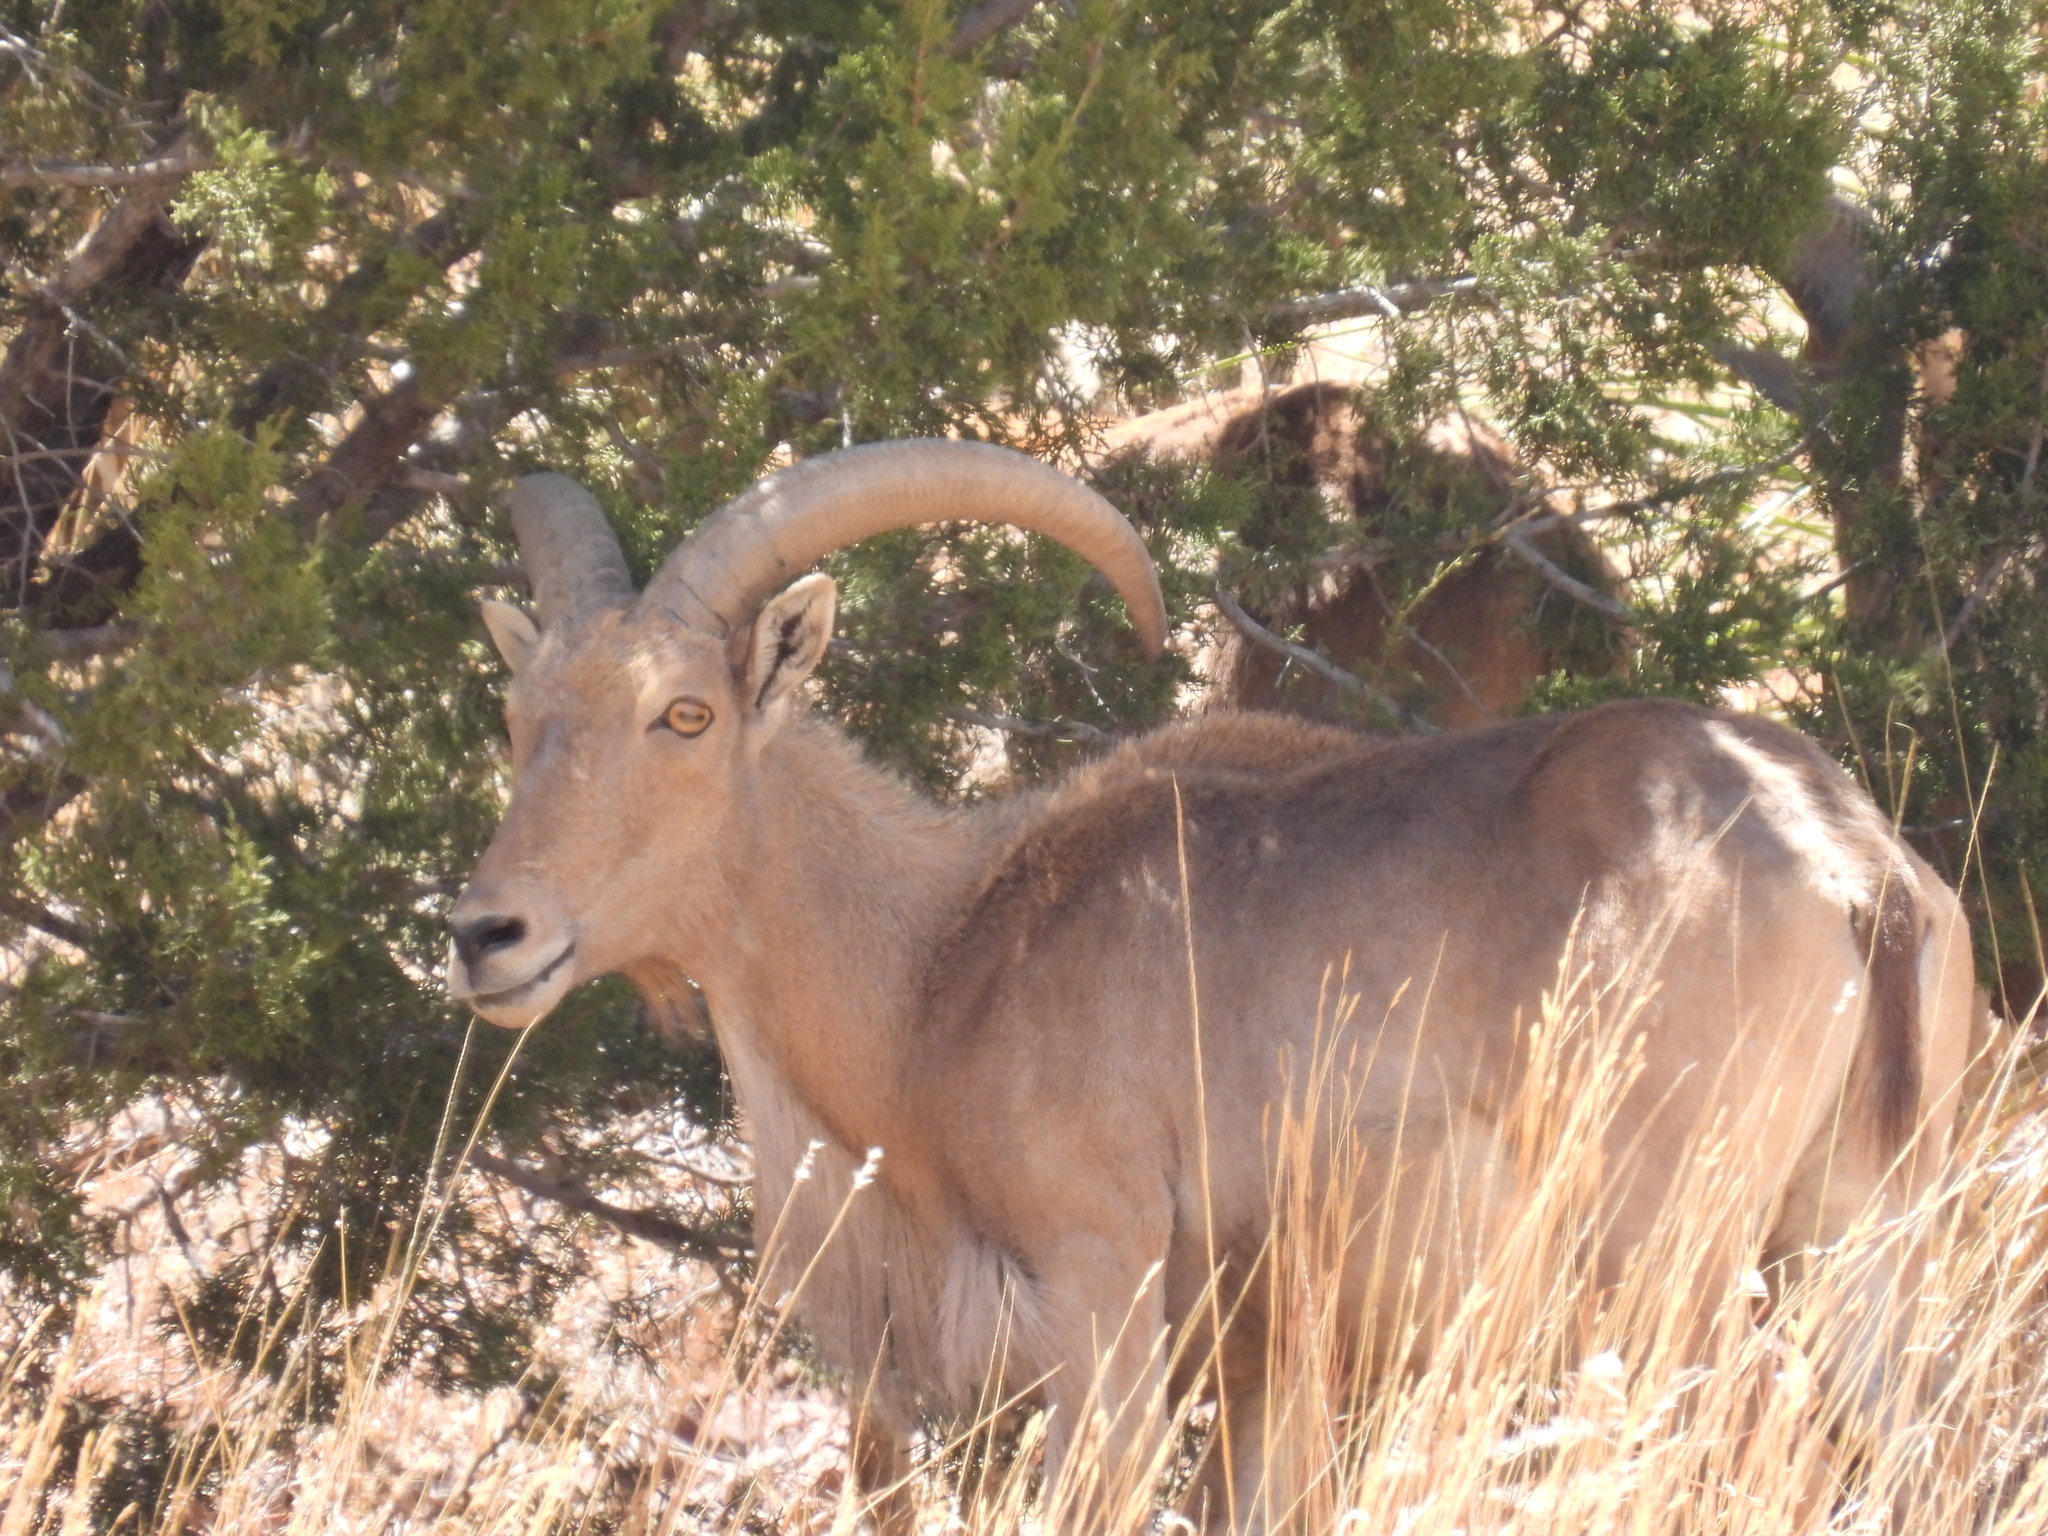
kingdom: Animalia
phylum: Chordata
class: Mammalia
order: Artiodactyla
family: Bovidae
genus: Ammotragus
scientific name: Ammotragus lervia
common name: Barbary sheep
